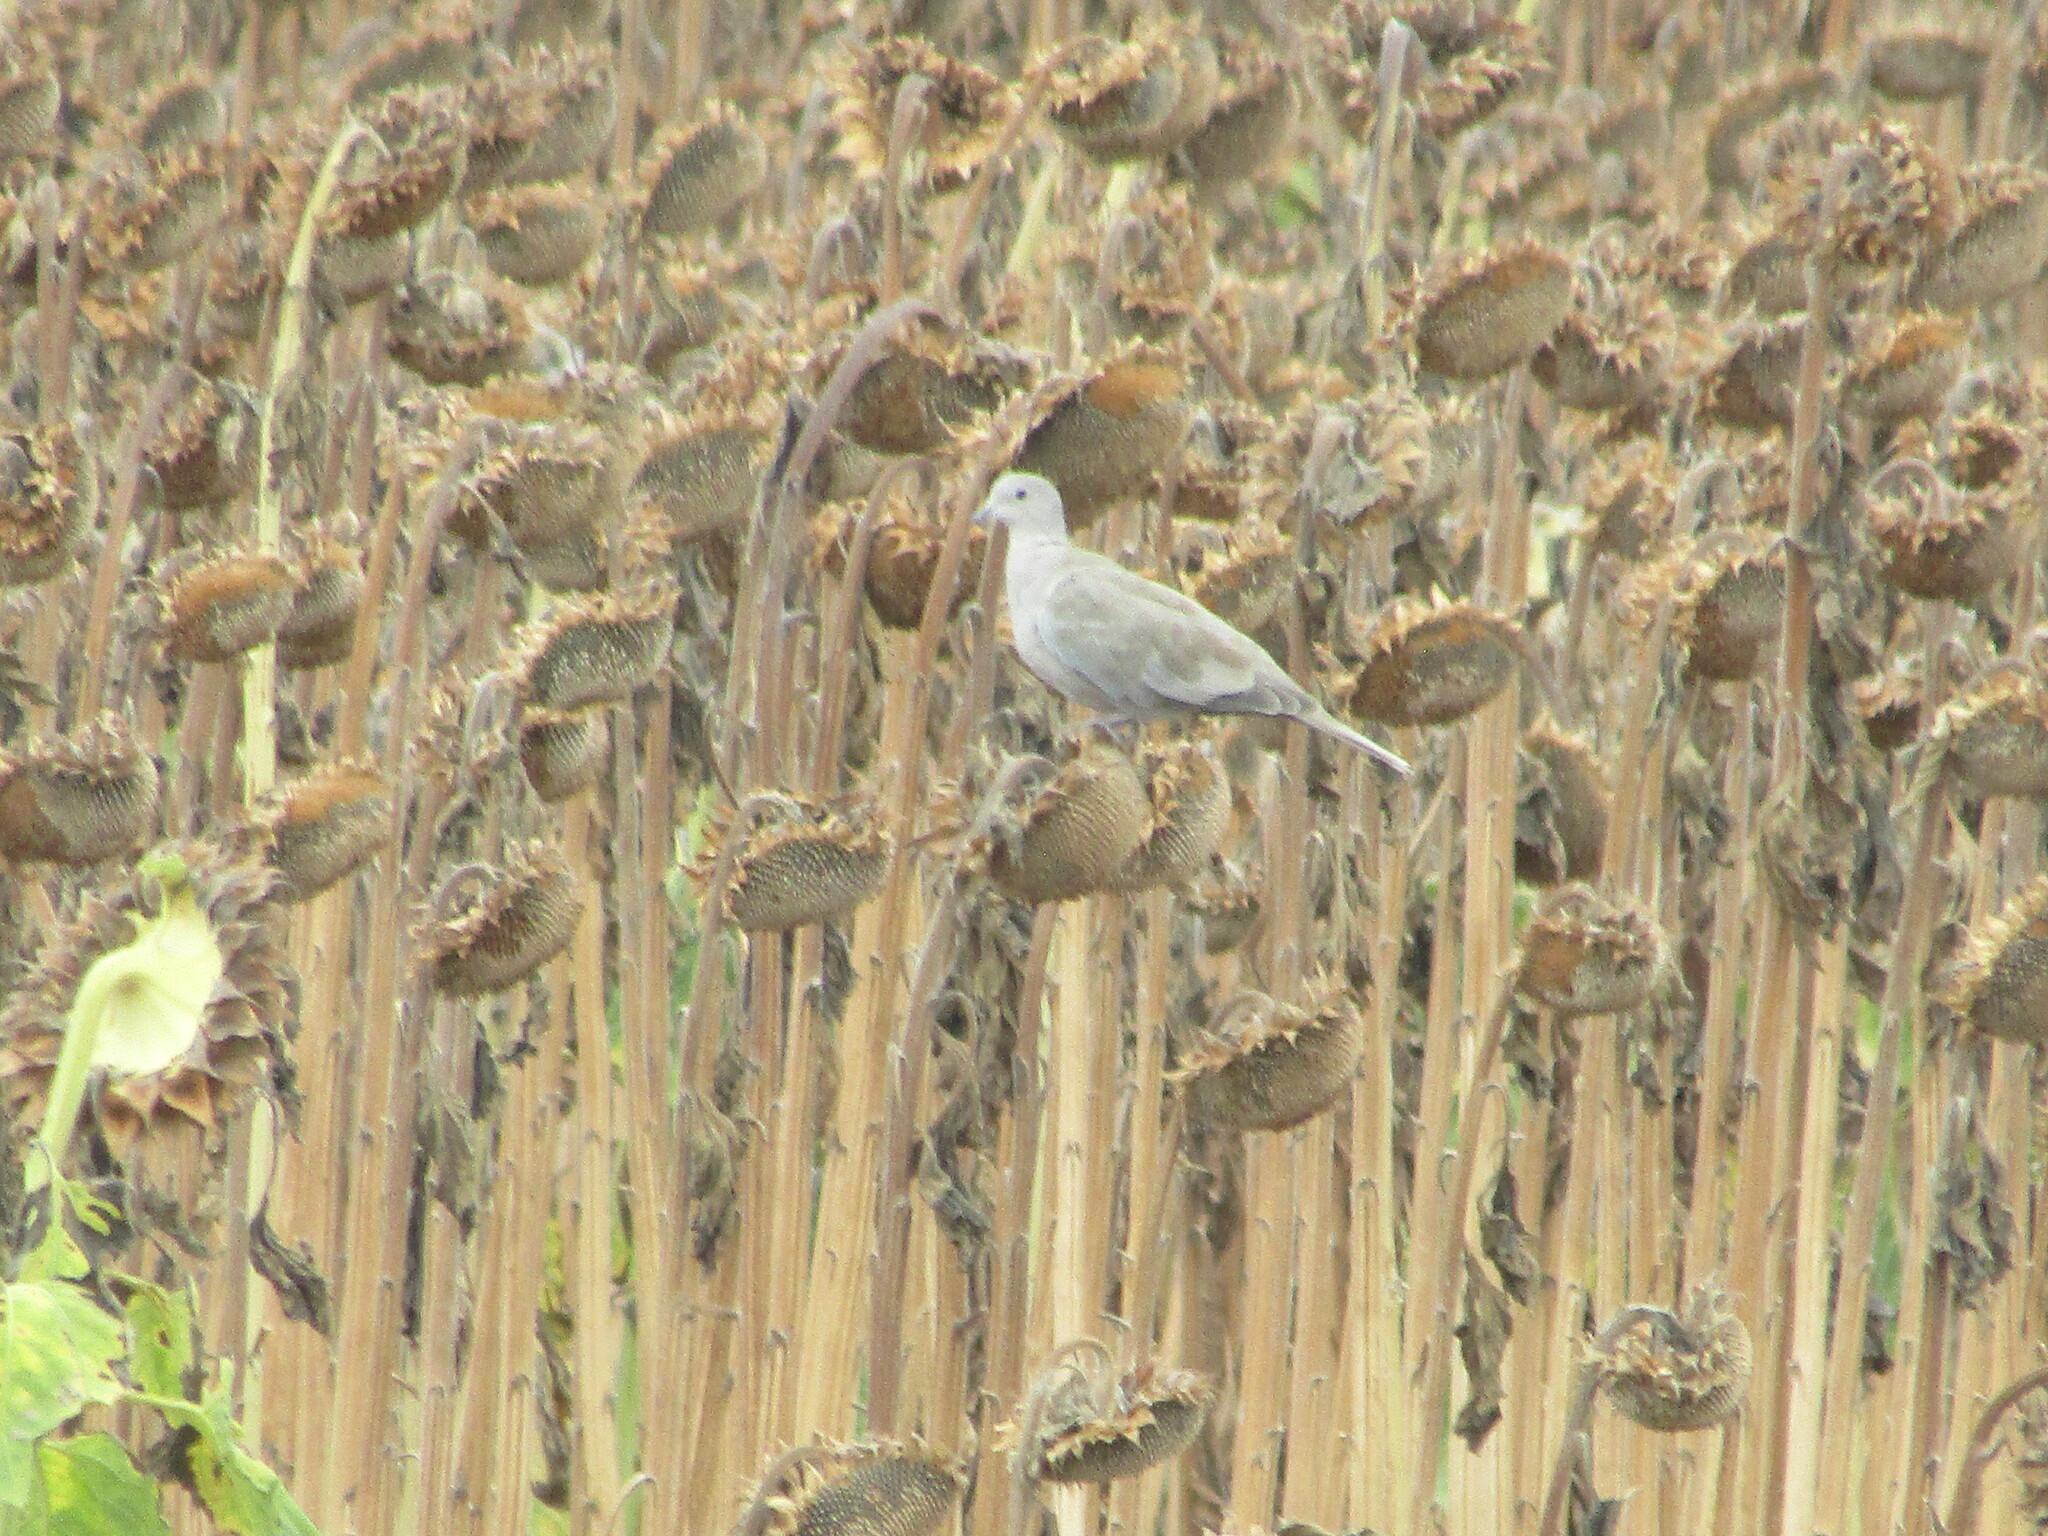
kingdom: Animalia
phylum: Chordata
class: Aves
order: Columbiformes
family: Columbidae
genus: Streptopelia
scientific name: Streptopelia decaocto
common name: Eurasian collared dove
